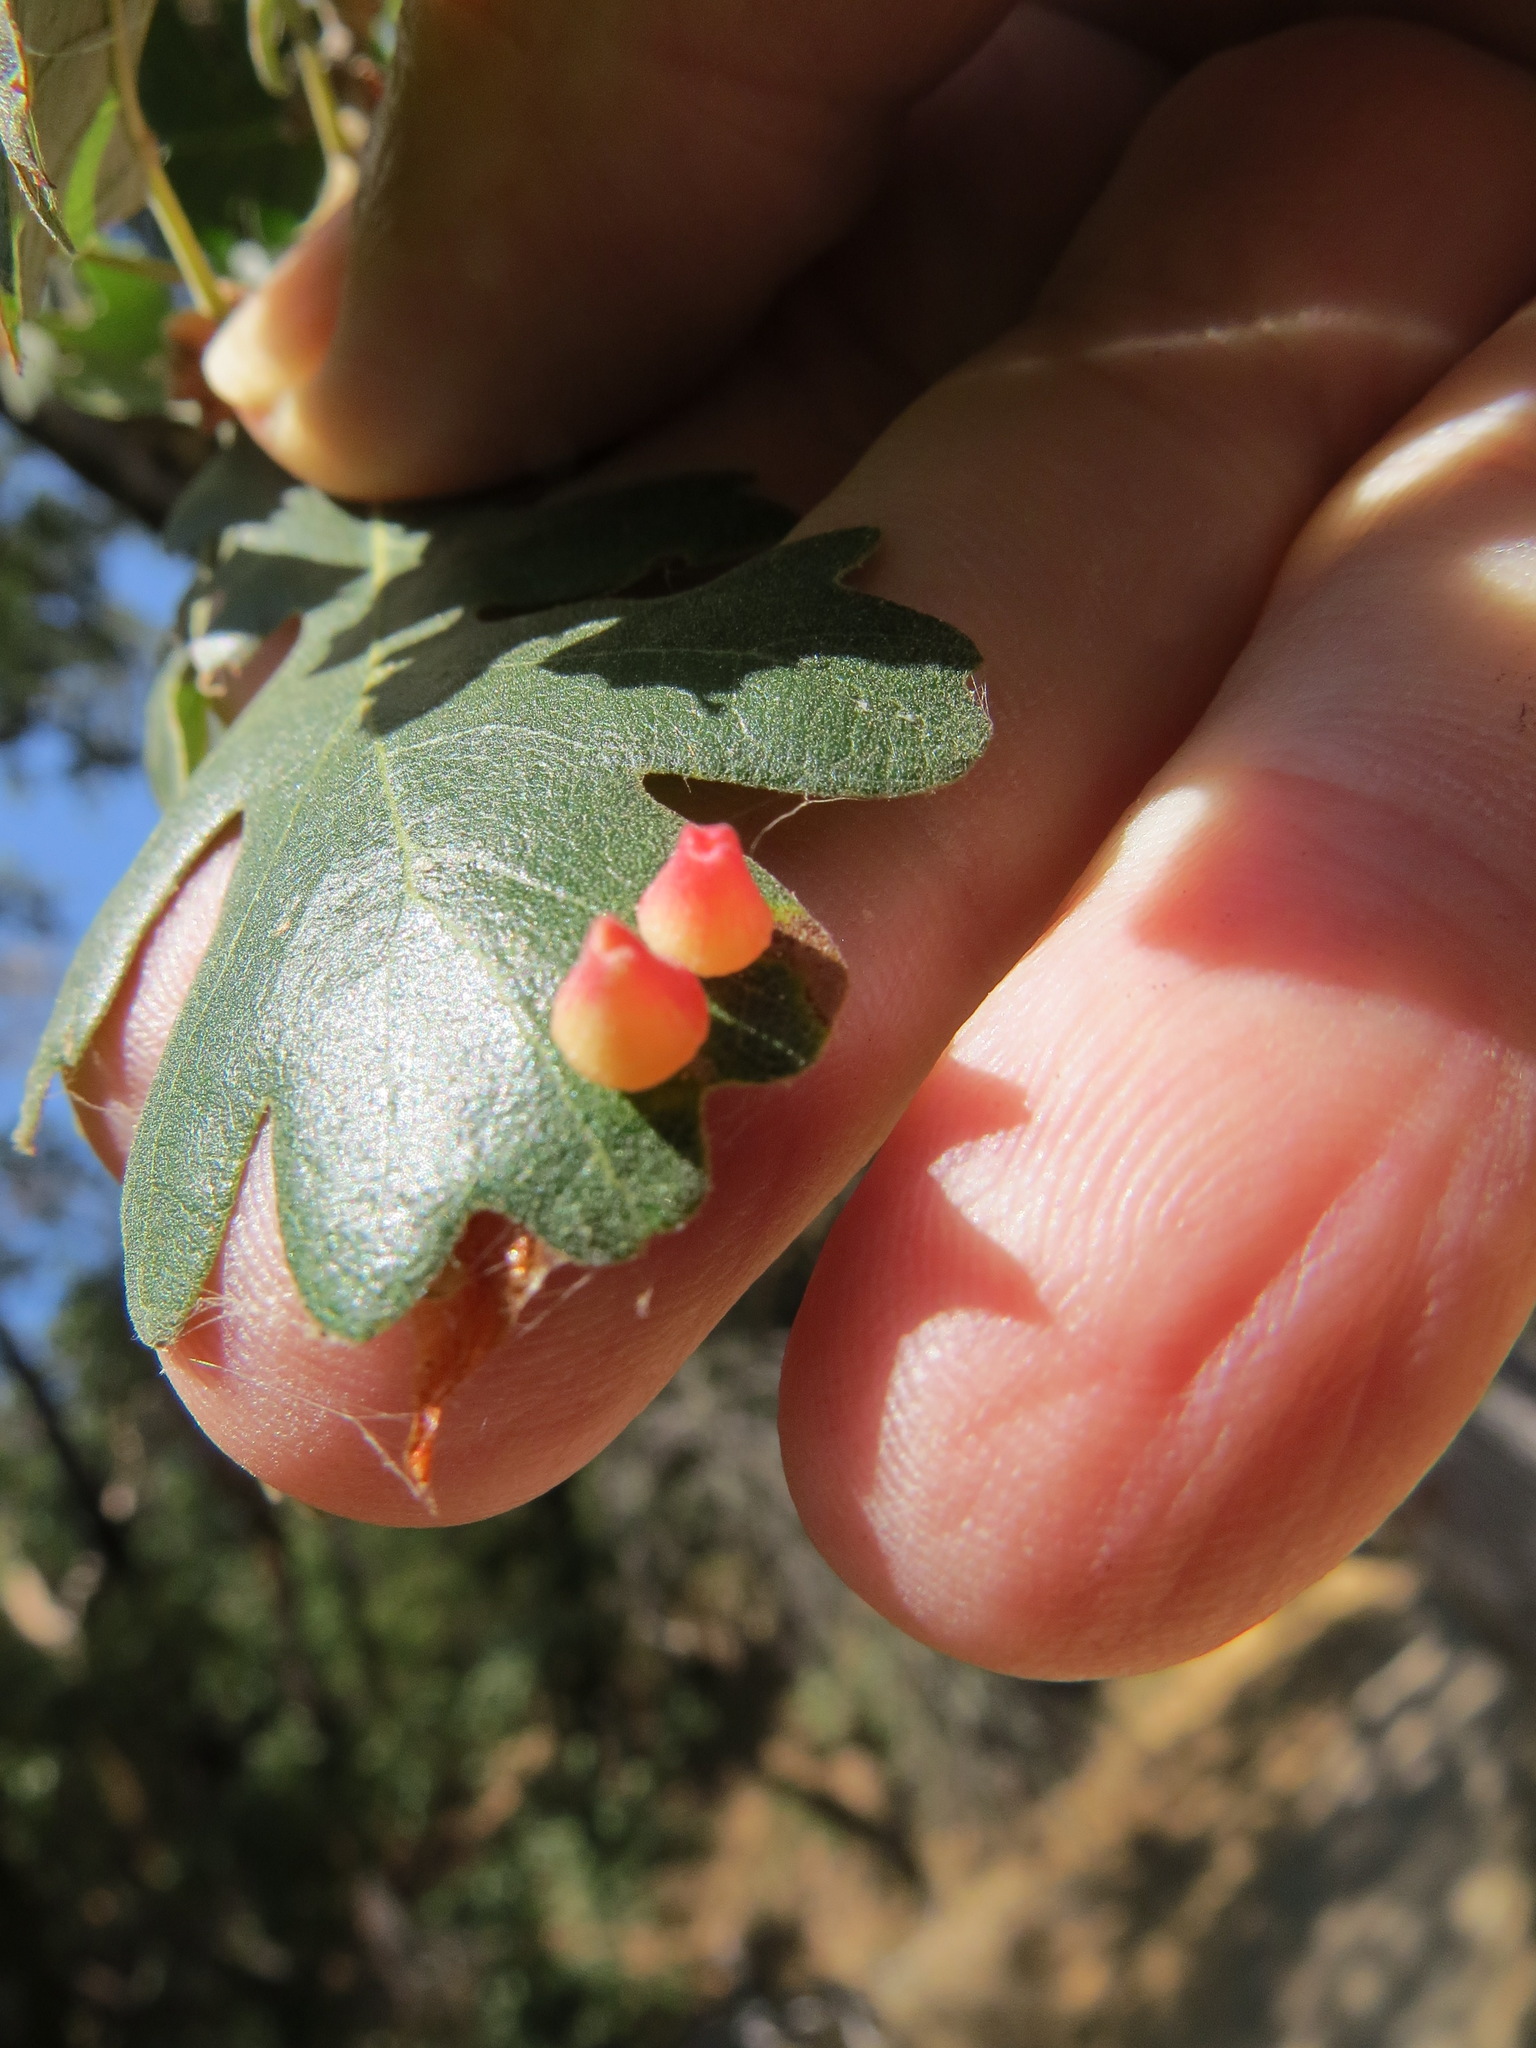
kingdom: Animalia
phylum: Arthropoda
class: Insecta
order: Hymenoptera
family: Cynipidae
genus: Andricus
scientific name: Andricus
